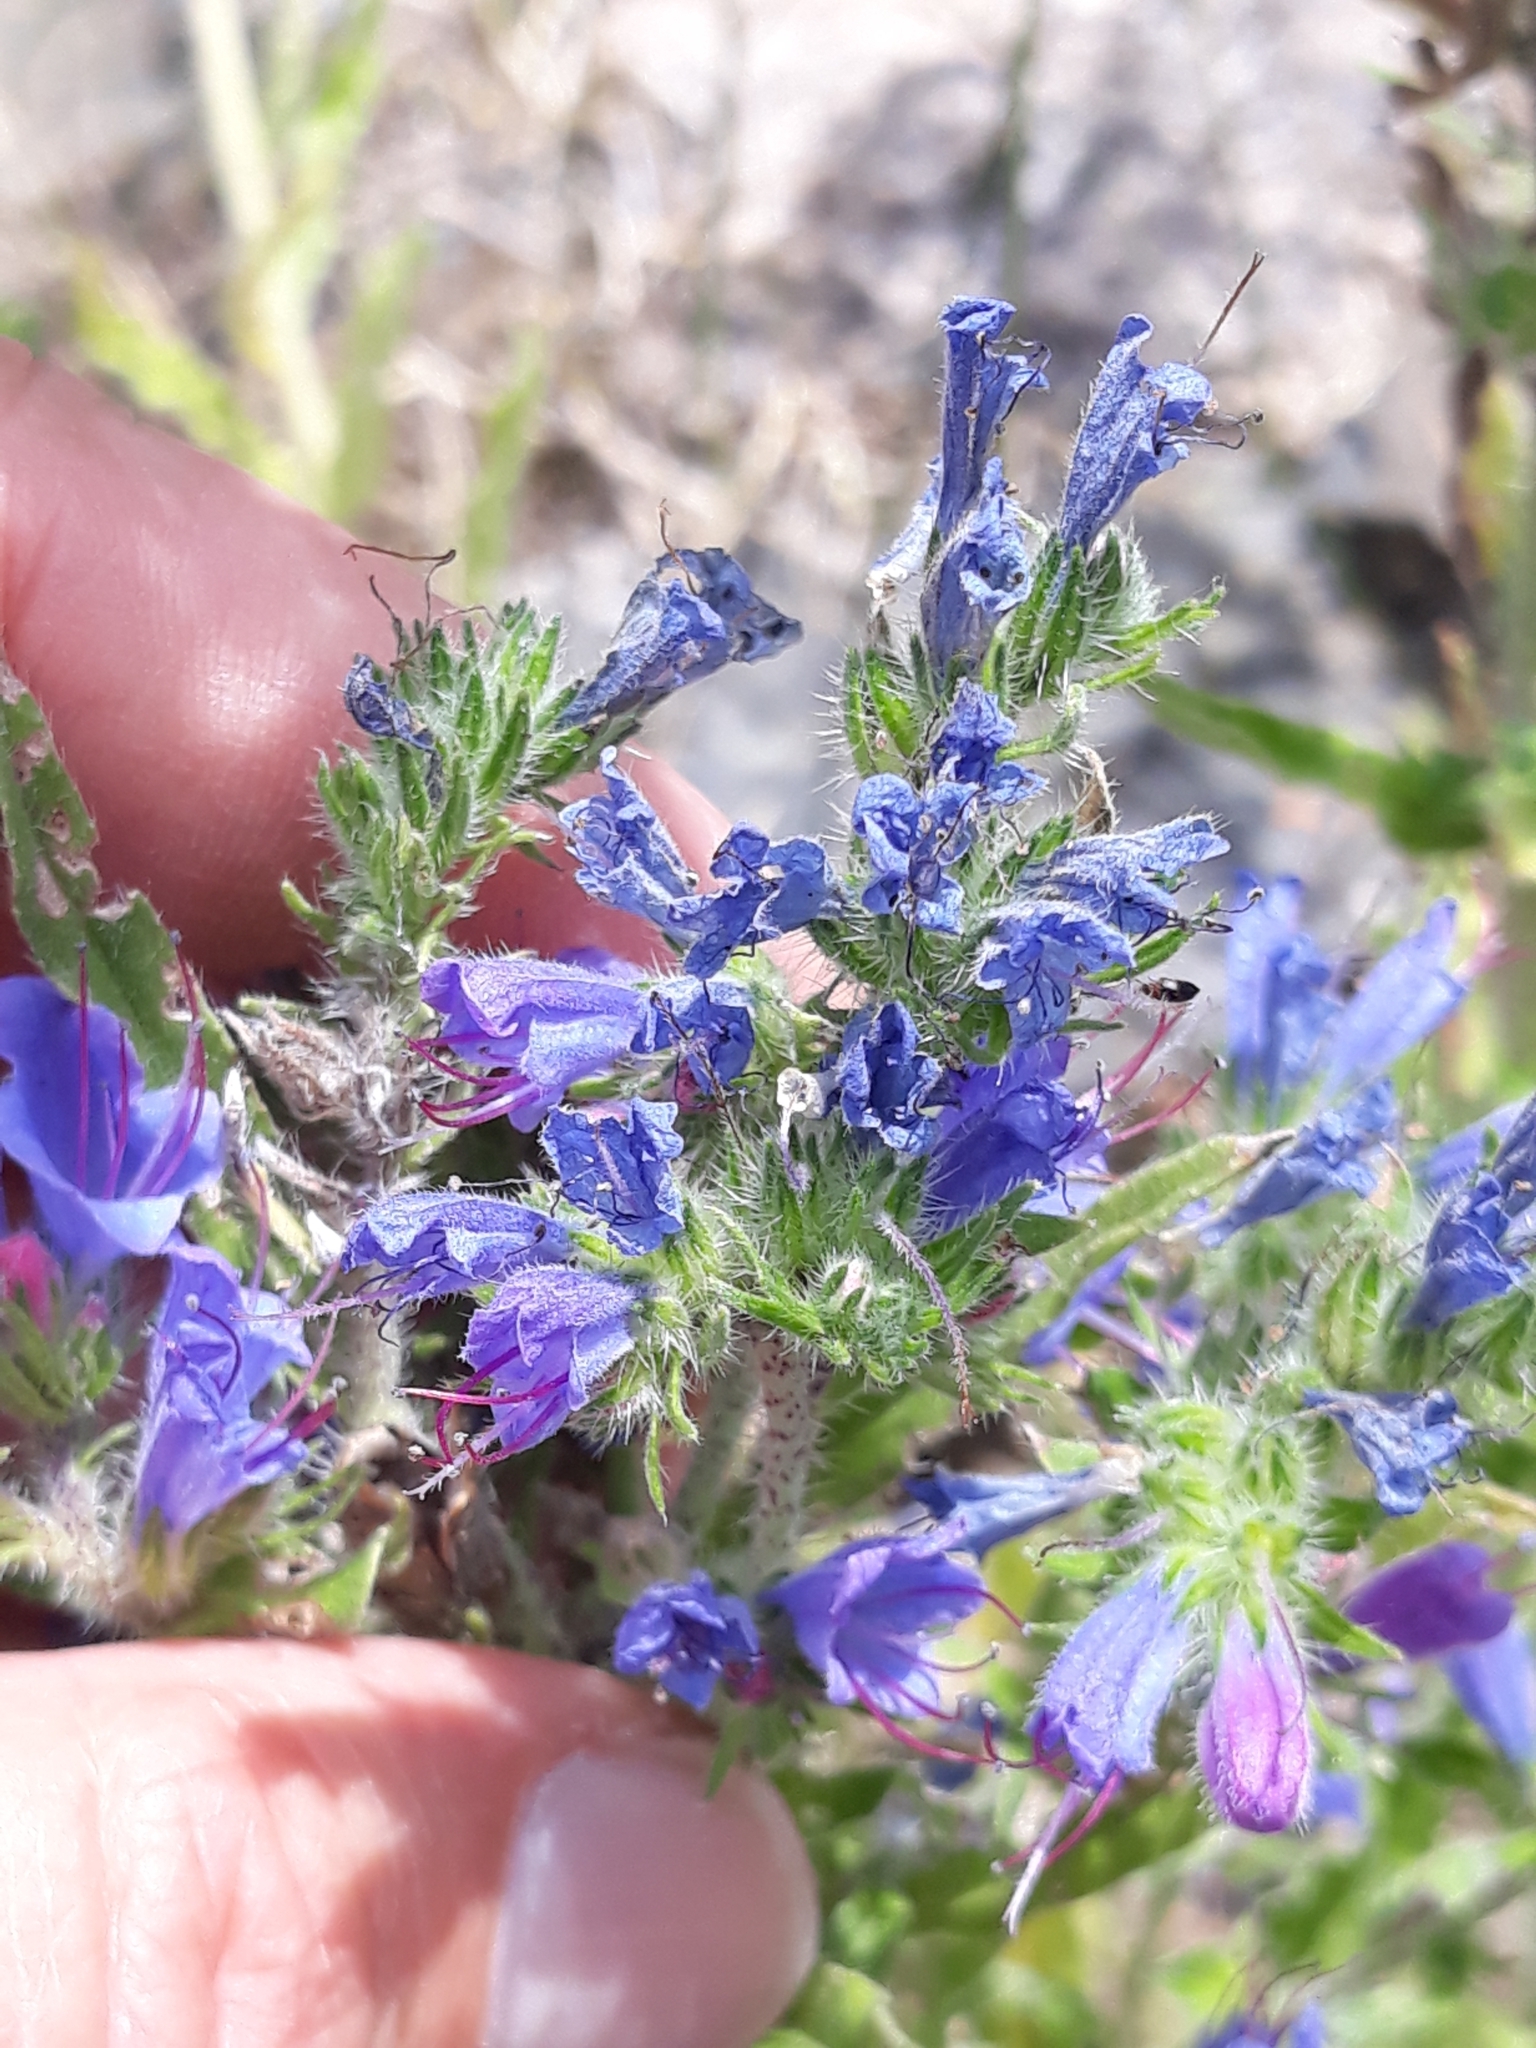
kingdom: Plantae
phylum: Tracheophyta
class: Magnoliopsida
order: Boraginales
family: Boraginaceae
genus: Echium
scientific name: Echium vulgare
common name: Common viper's bugloss
